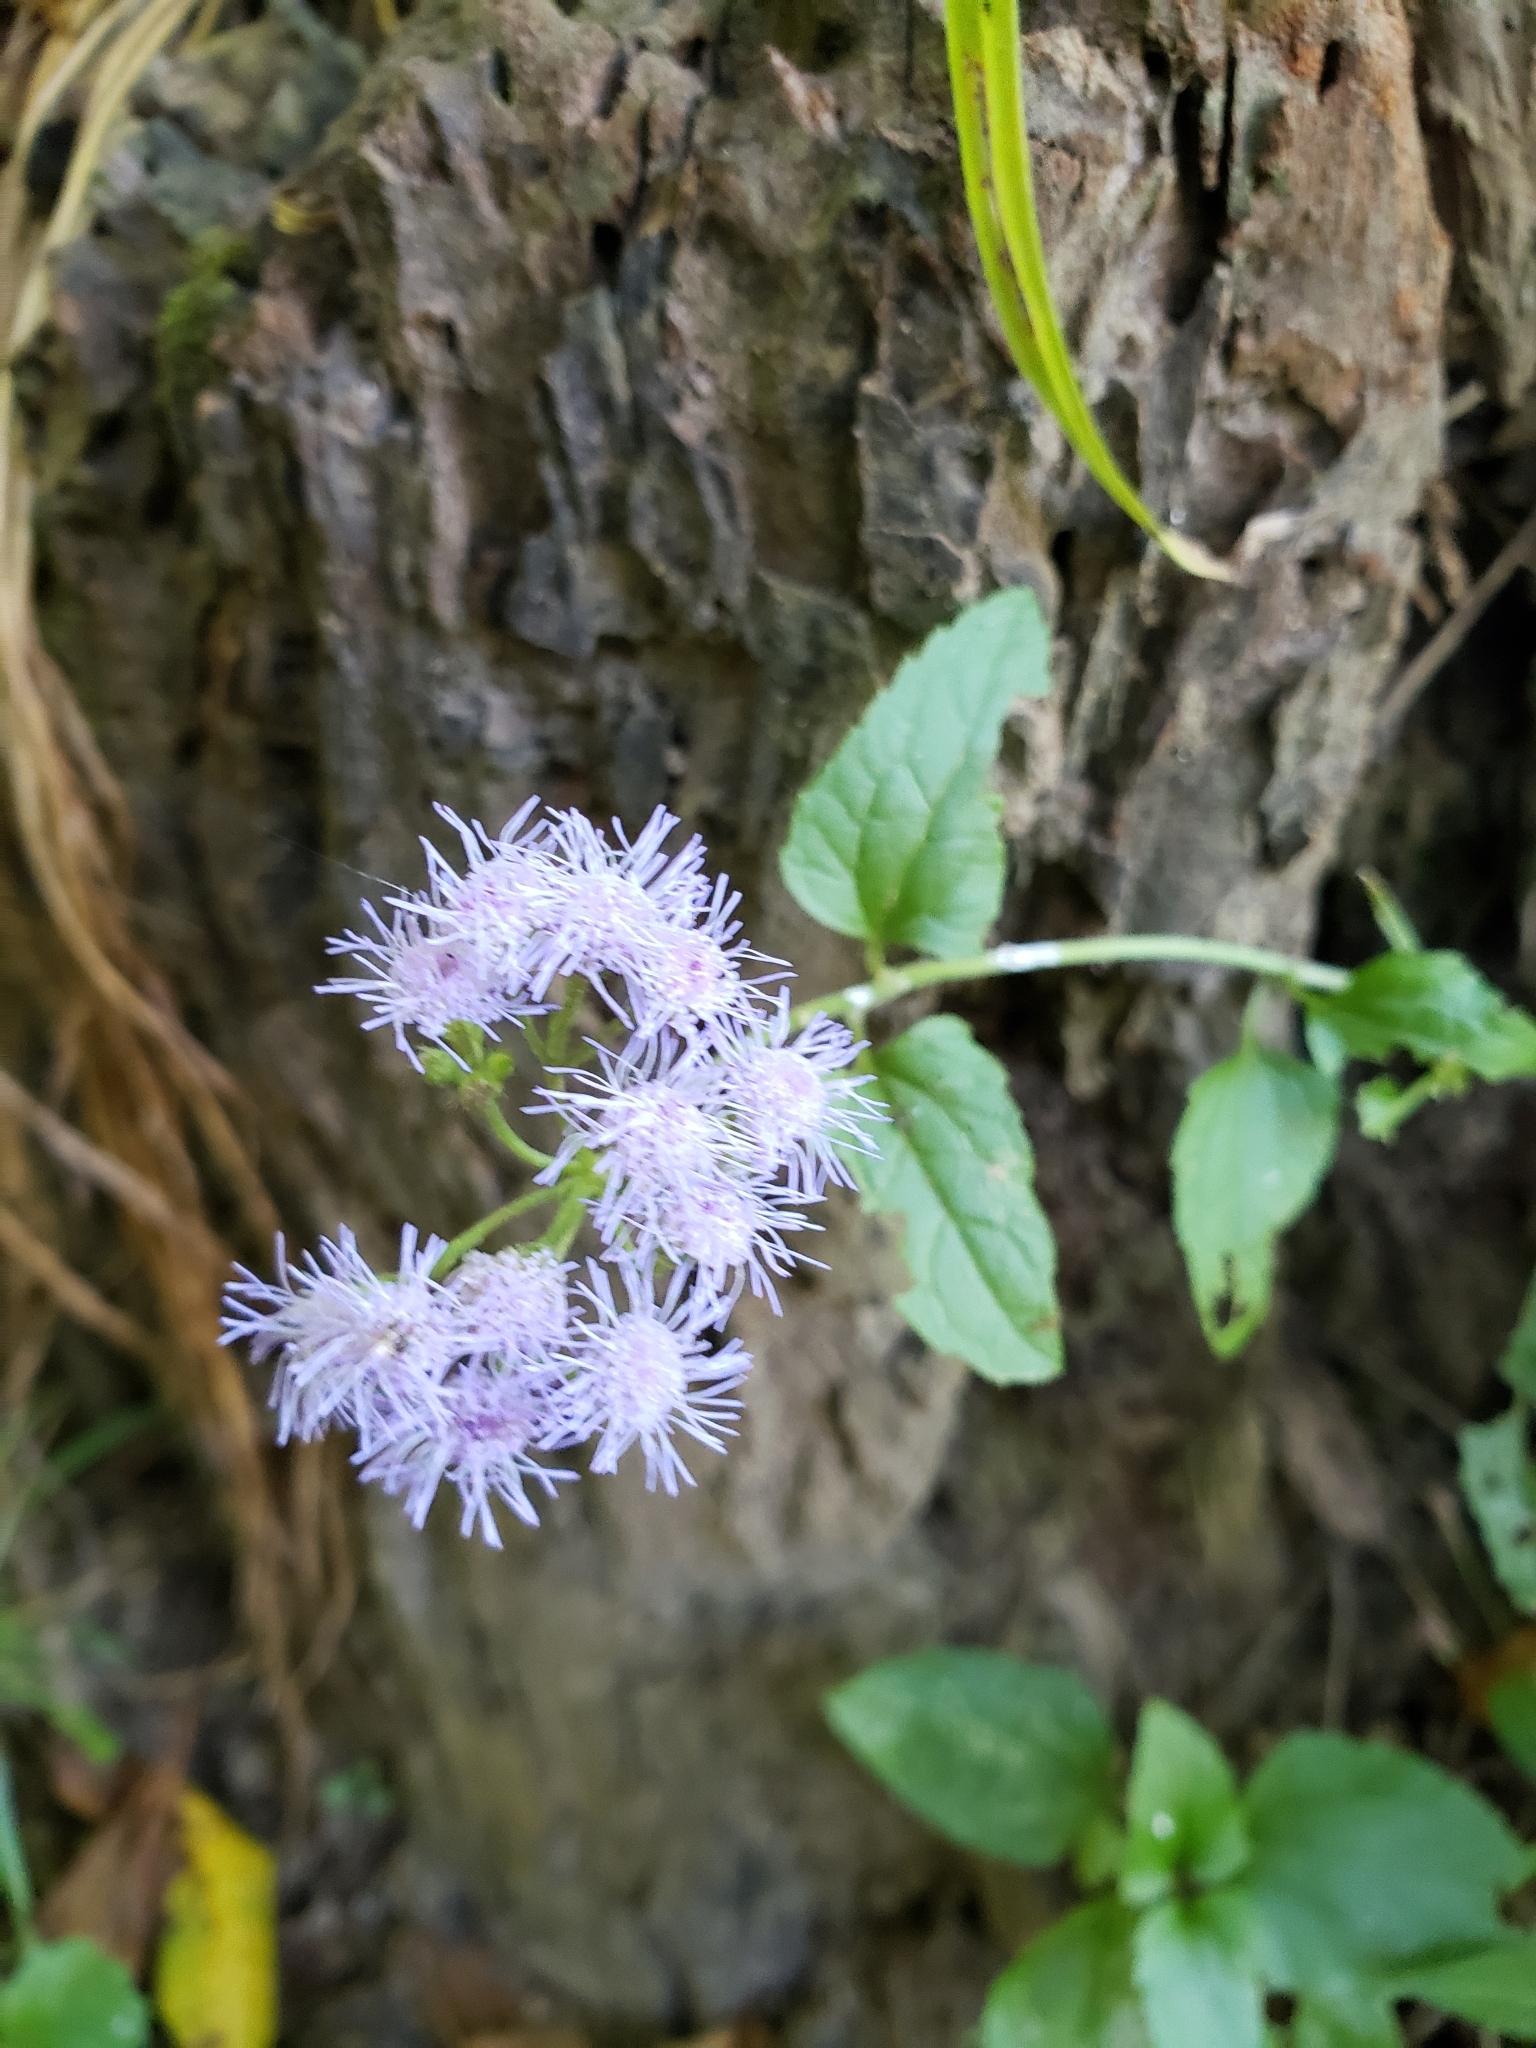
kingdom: Plantae
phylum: Tracheophyta
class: Magnoliopsida
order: Asterales
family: Asteraceae
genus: Conoclinium
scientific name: Conoclinium coelestinum
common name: Blue mistflower
